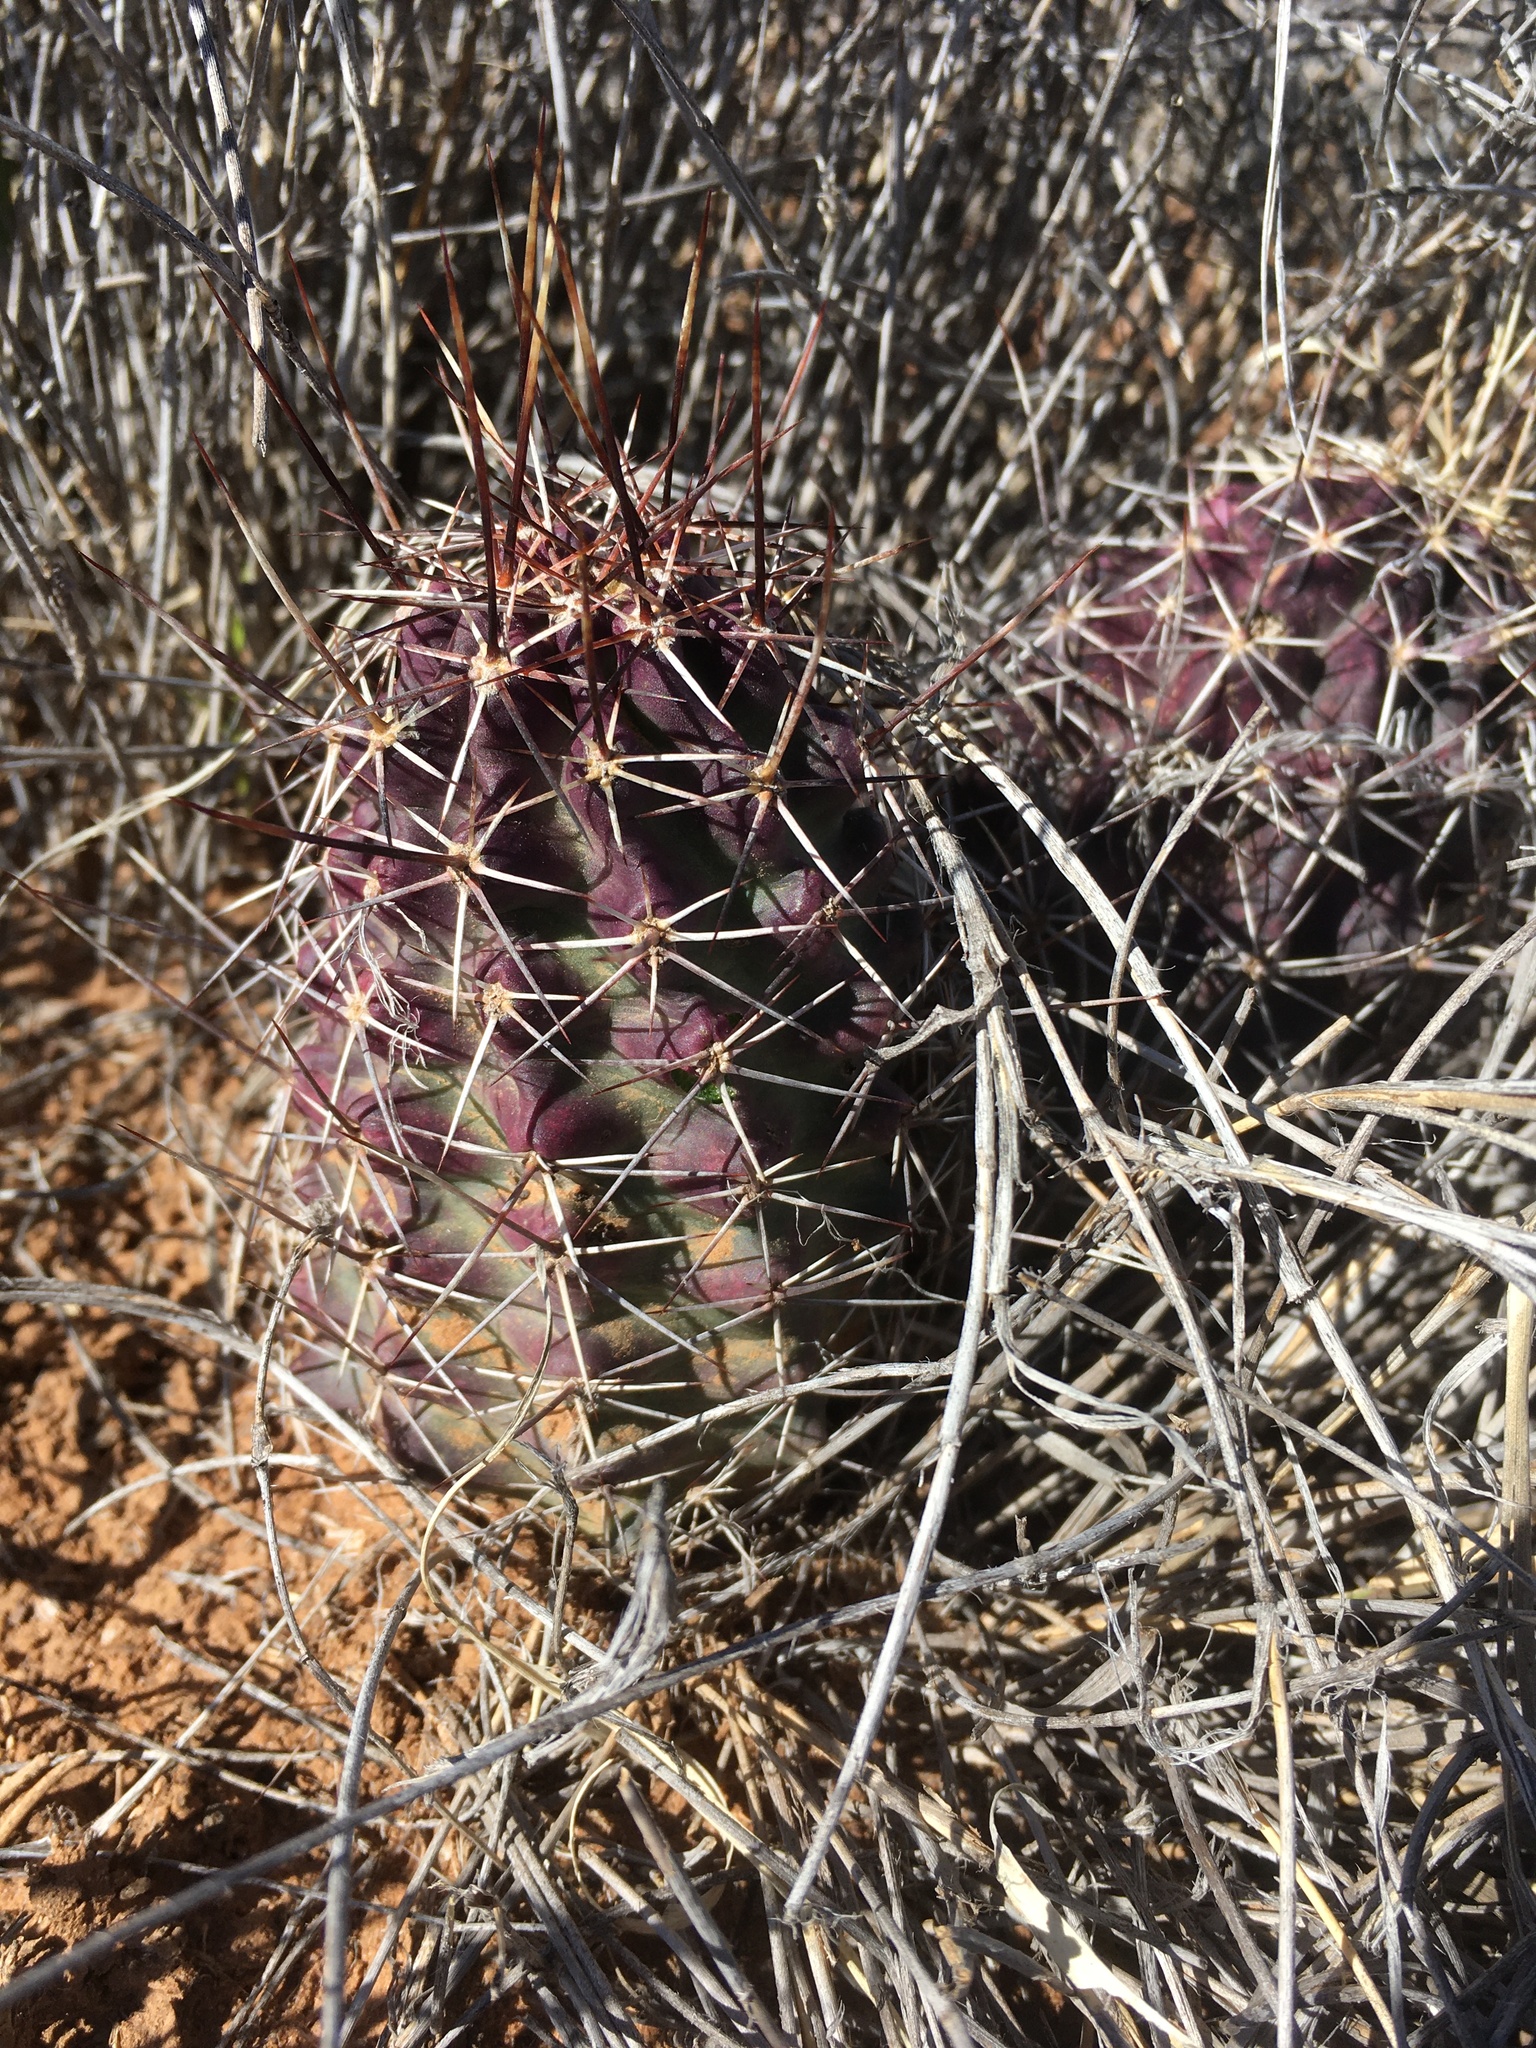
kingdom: Plantae
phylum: Tracheophyta
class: Magnoliopsida
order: Caryophyllales
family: Cactaceae
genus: Echinocereus
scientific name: Echinocereus fendleri
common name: Fendler's hedgehog cactus
